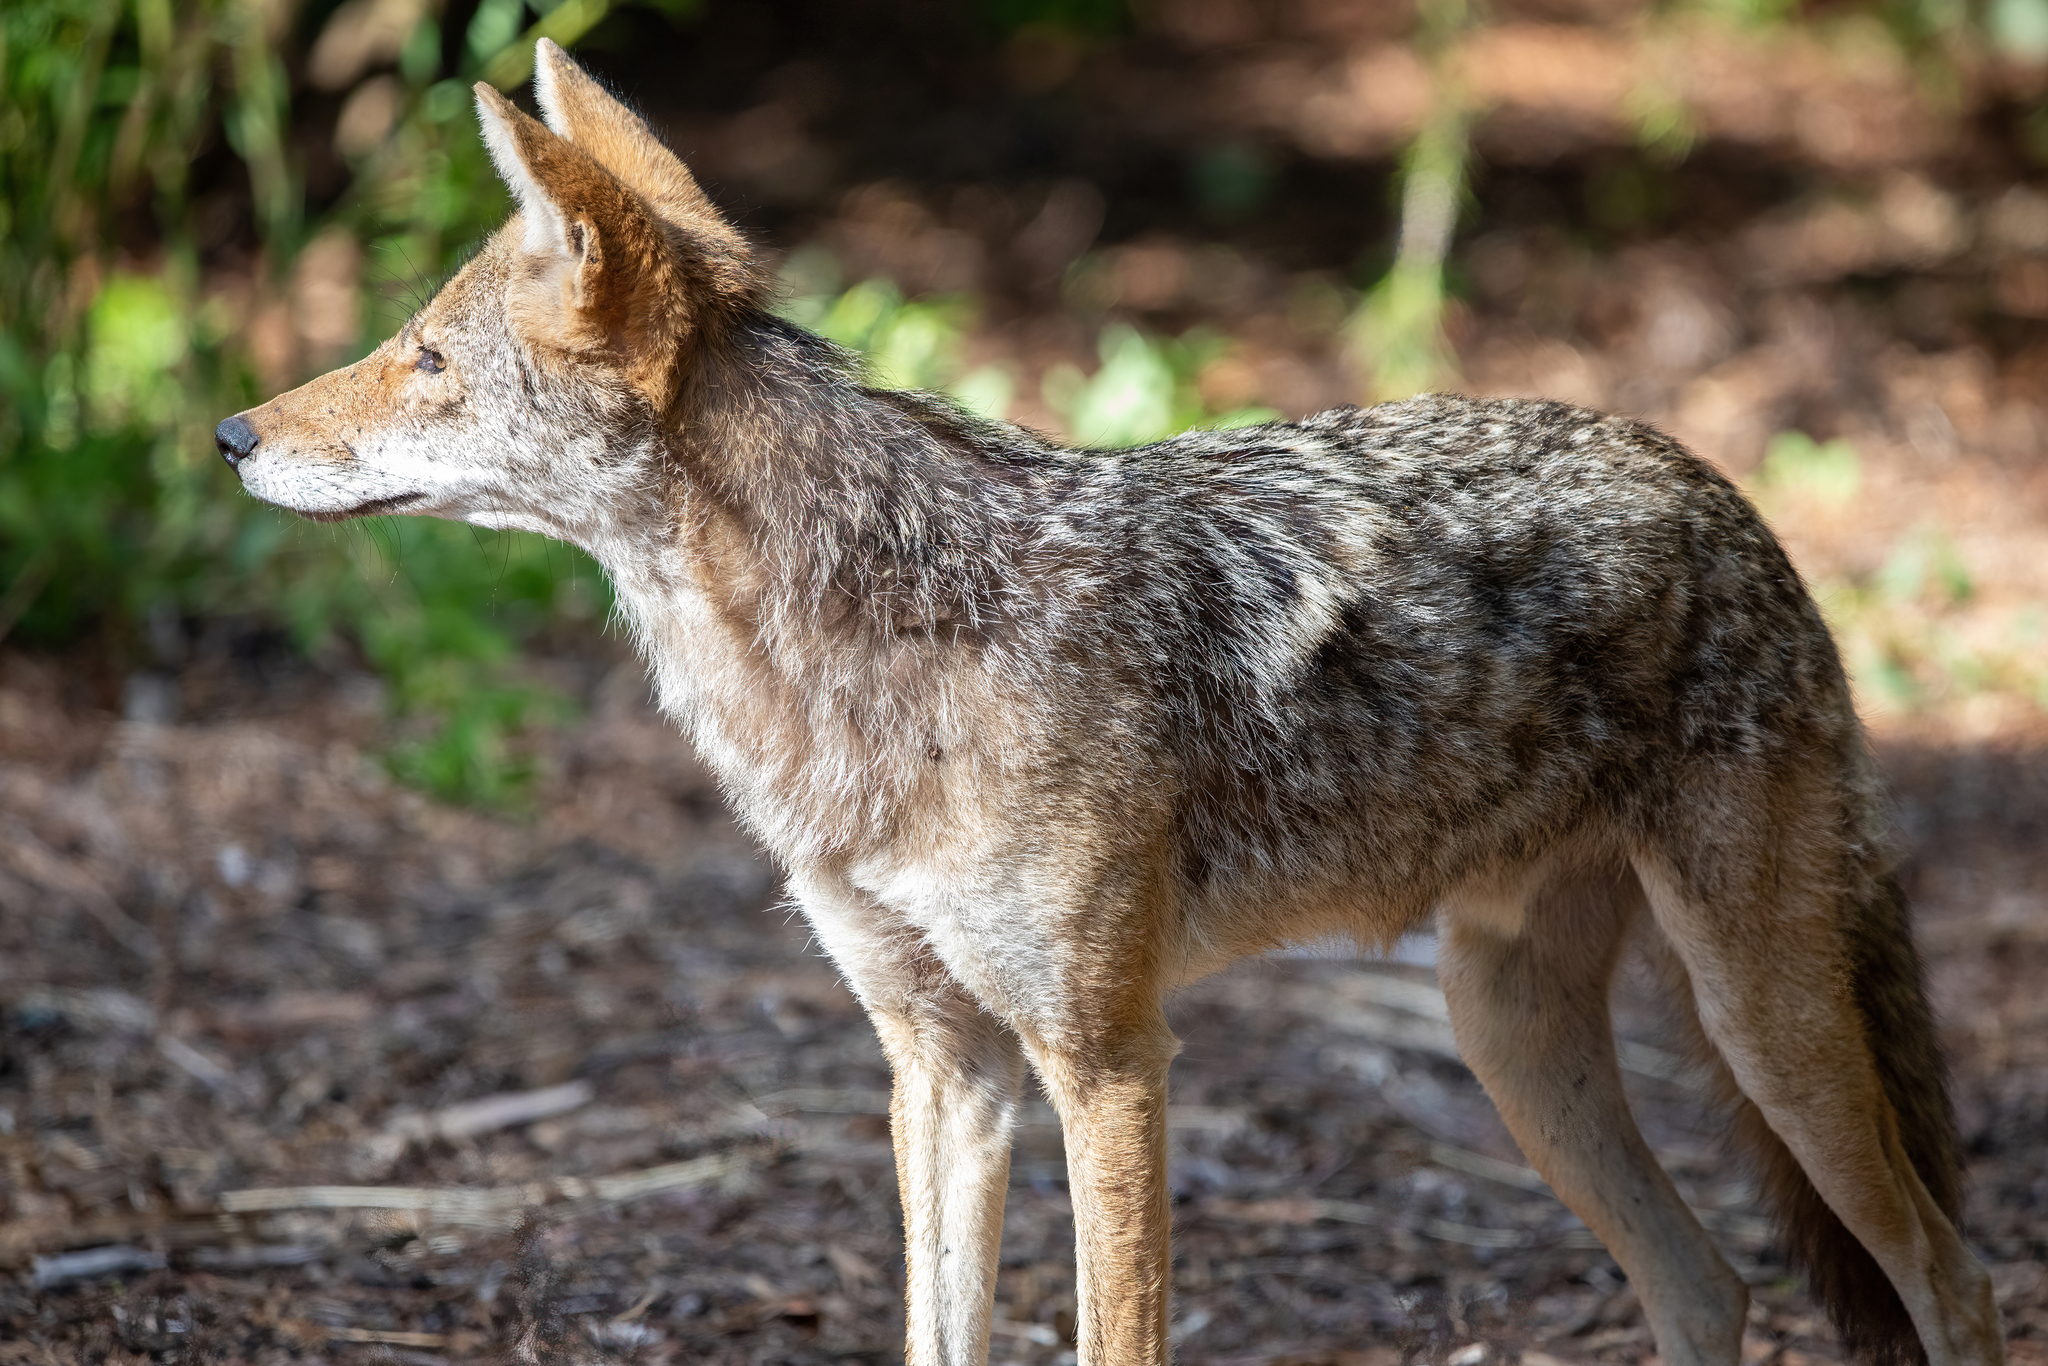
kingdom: Animalia
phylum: Chordata
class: Mammalia
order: Carnivora
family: Canidae
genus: Canis
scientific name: Canis latrans
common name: Coyote
